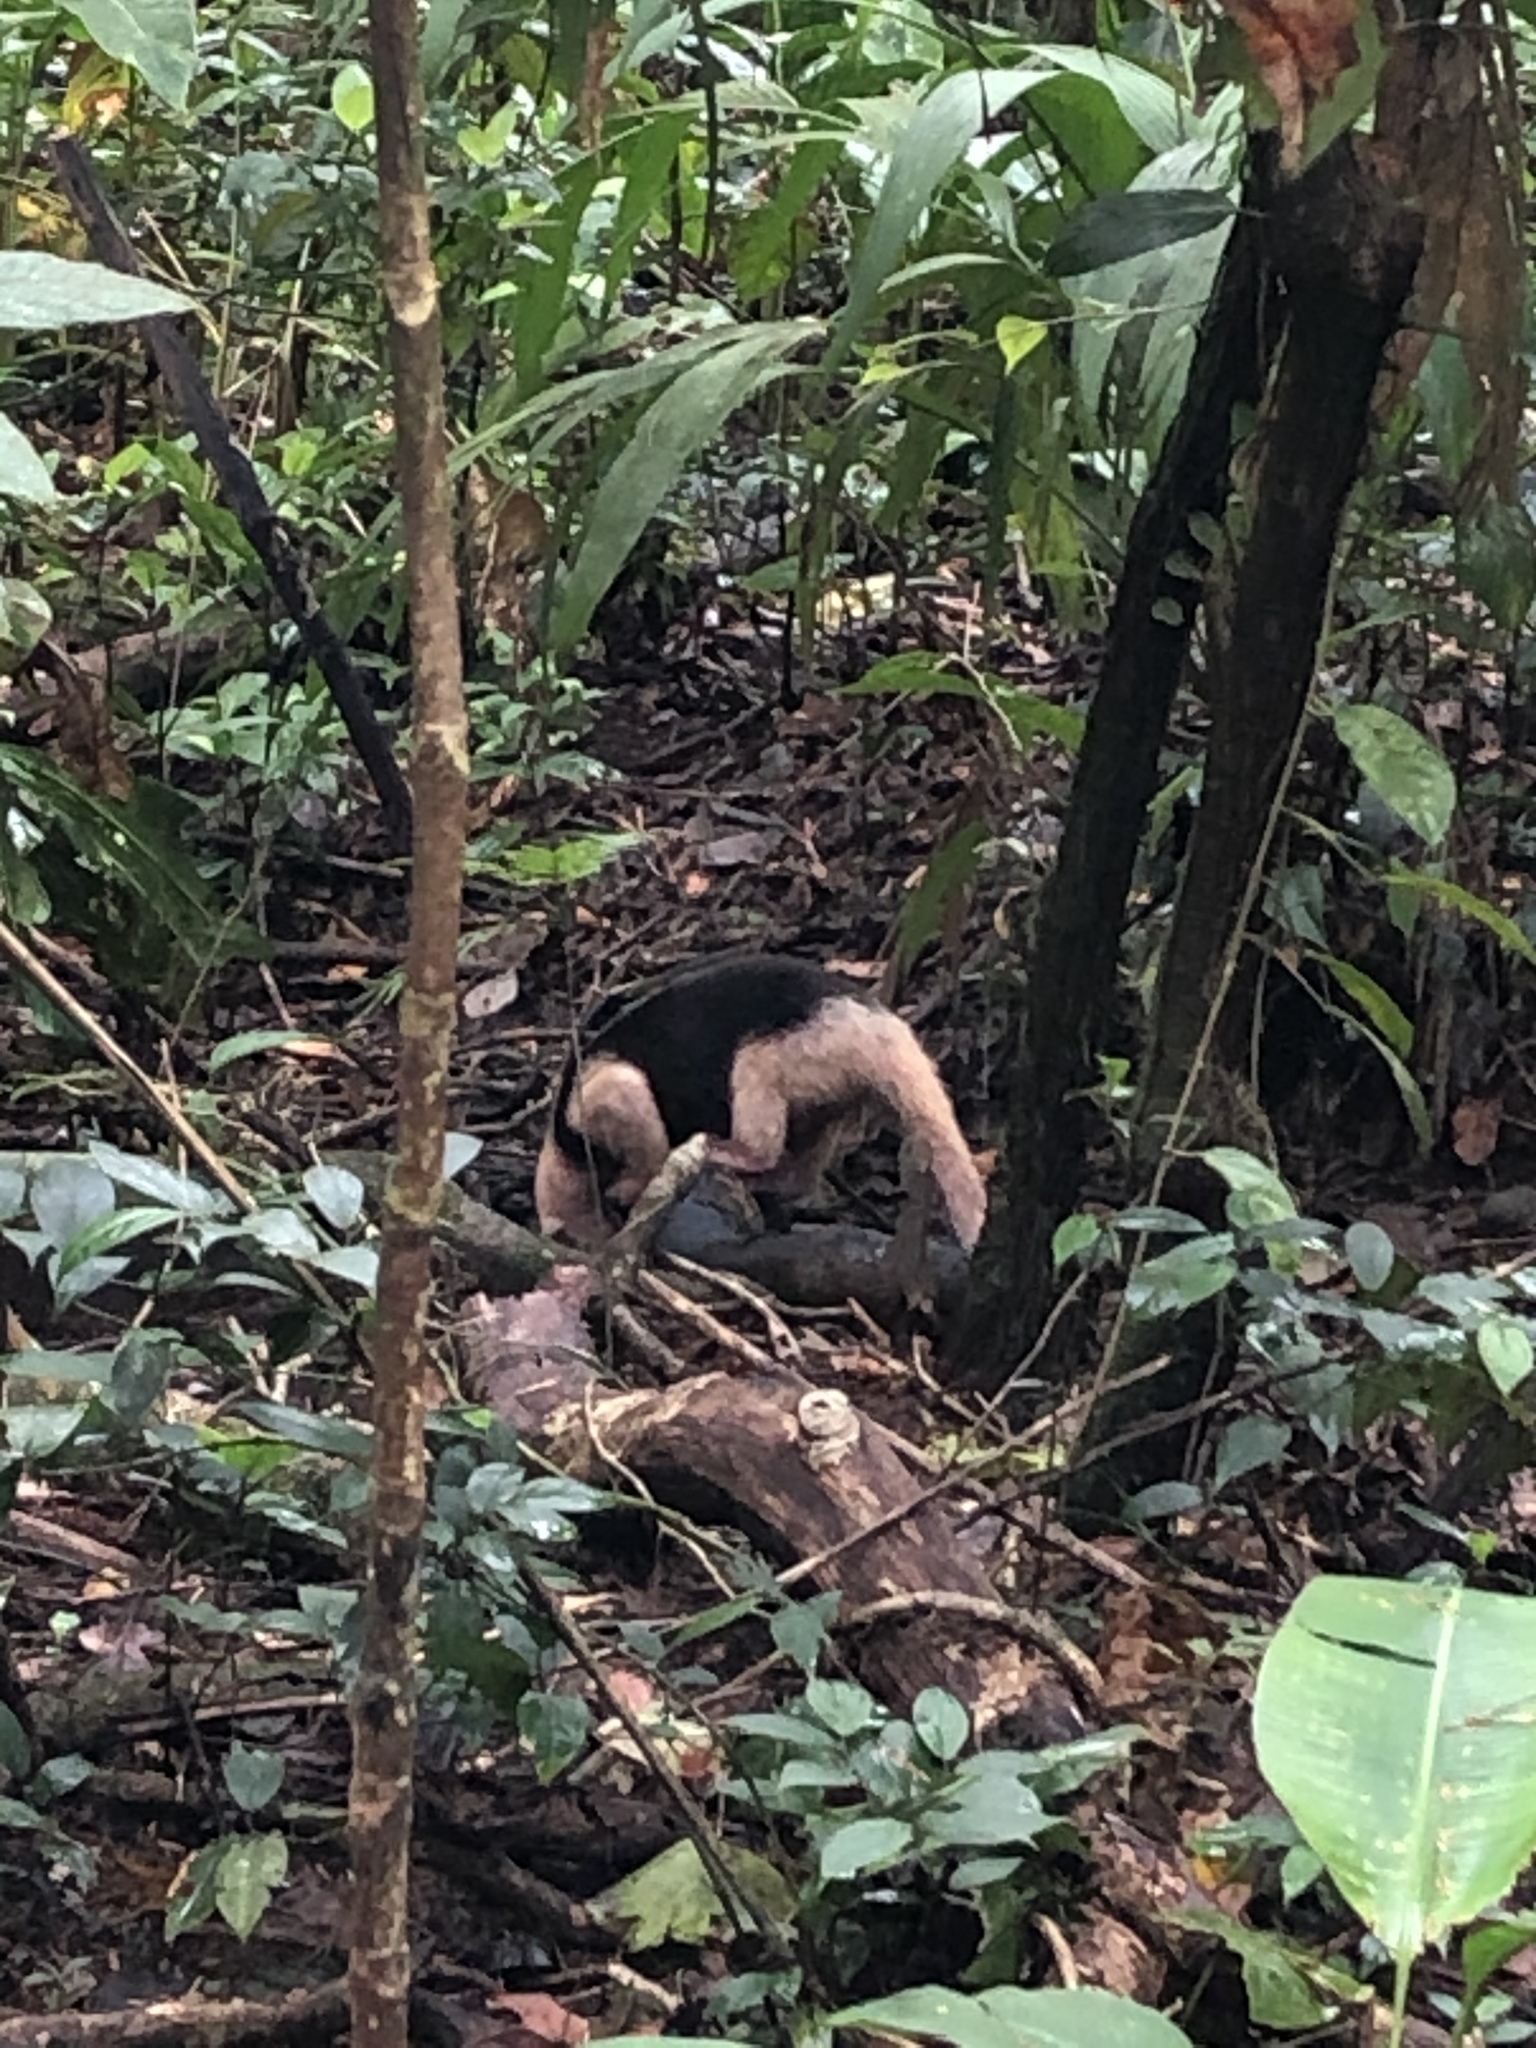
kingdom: Animalia
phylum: Chordata
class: Mammalia
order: Pilosa
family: Myrmecophagidae
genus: Tamandua
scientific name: Tamandua mexicana
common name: Northern tamandua
